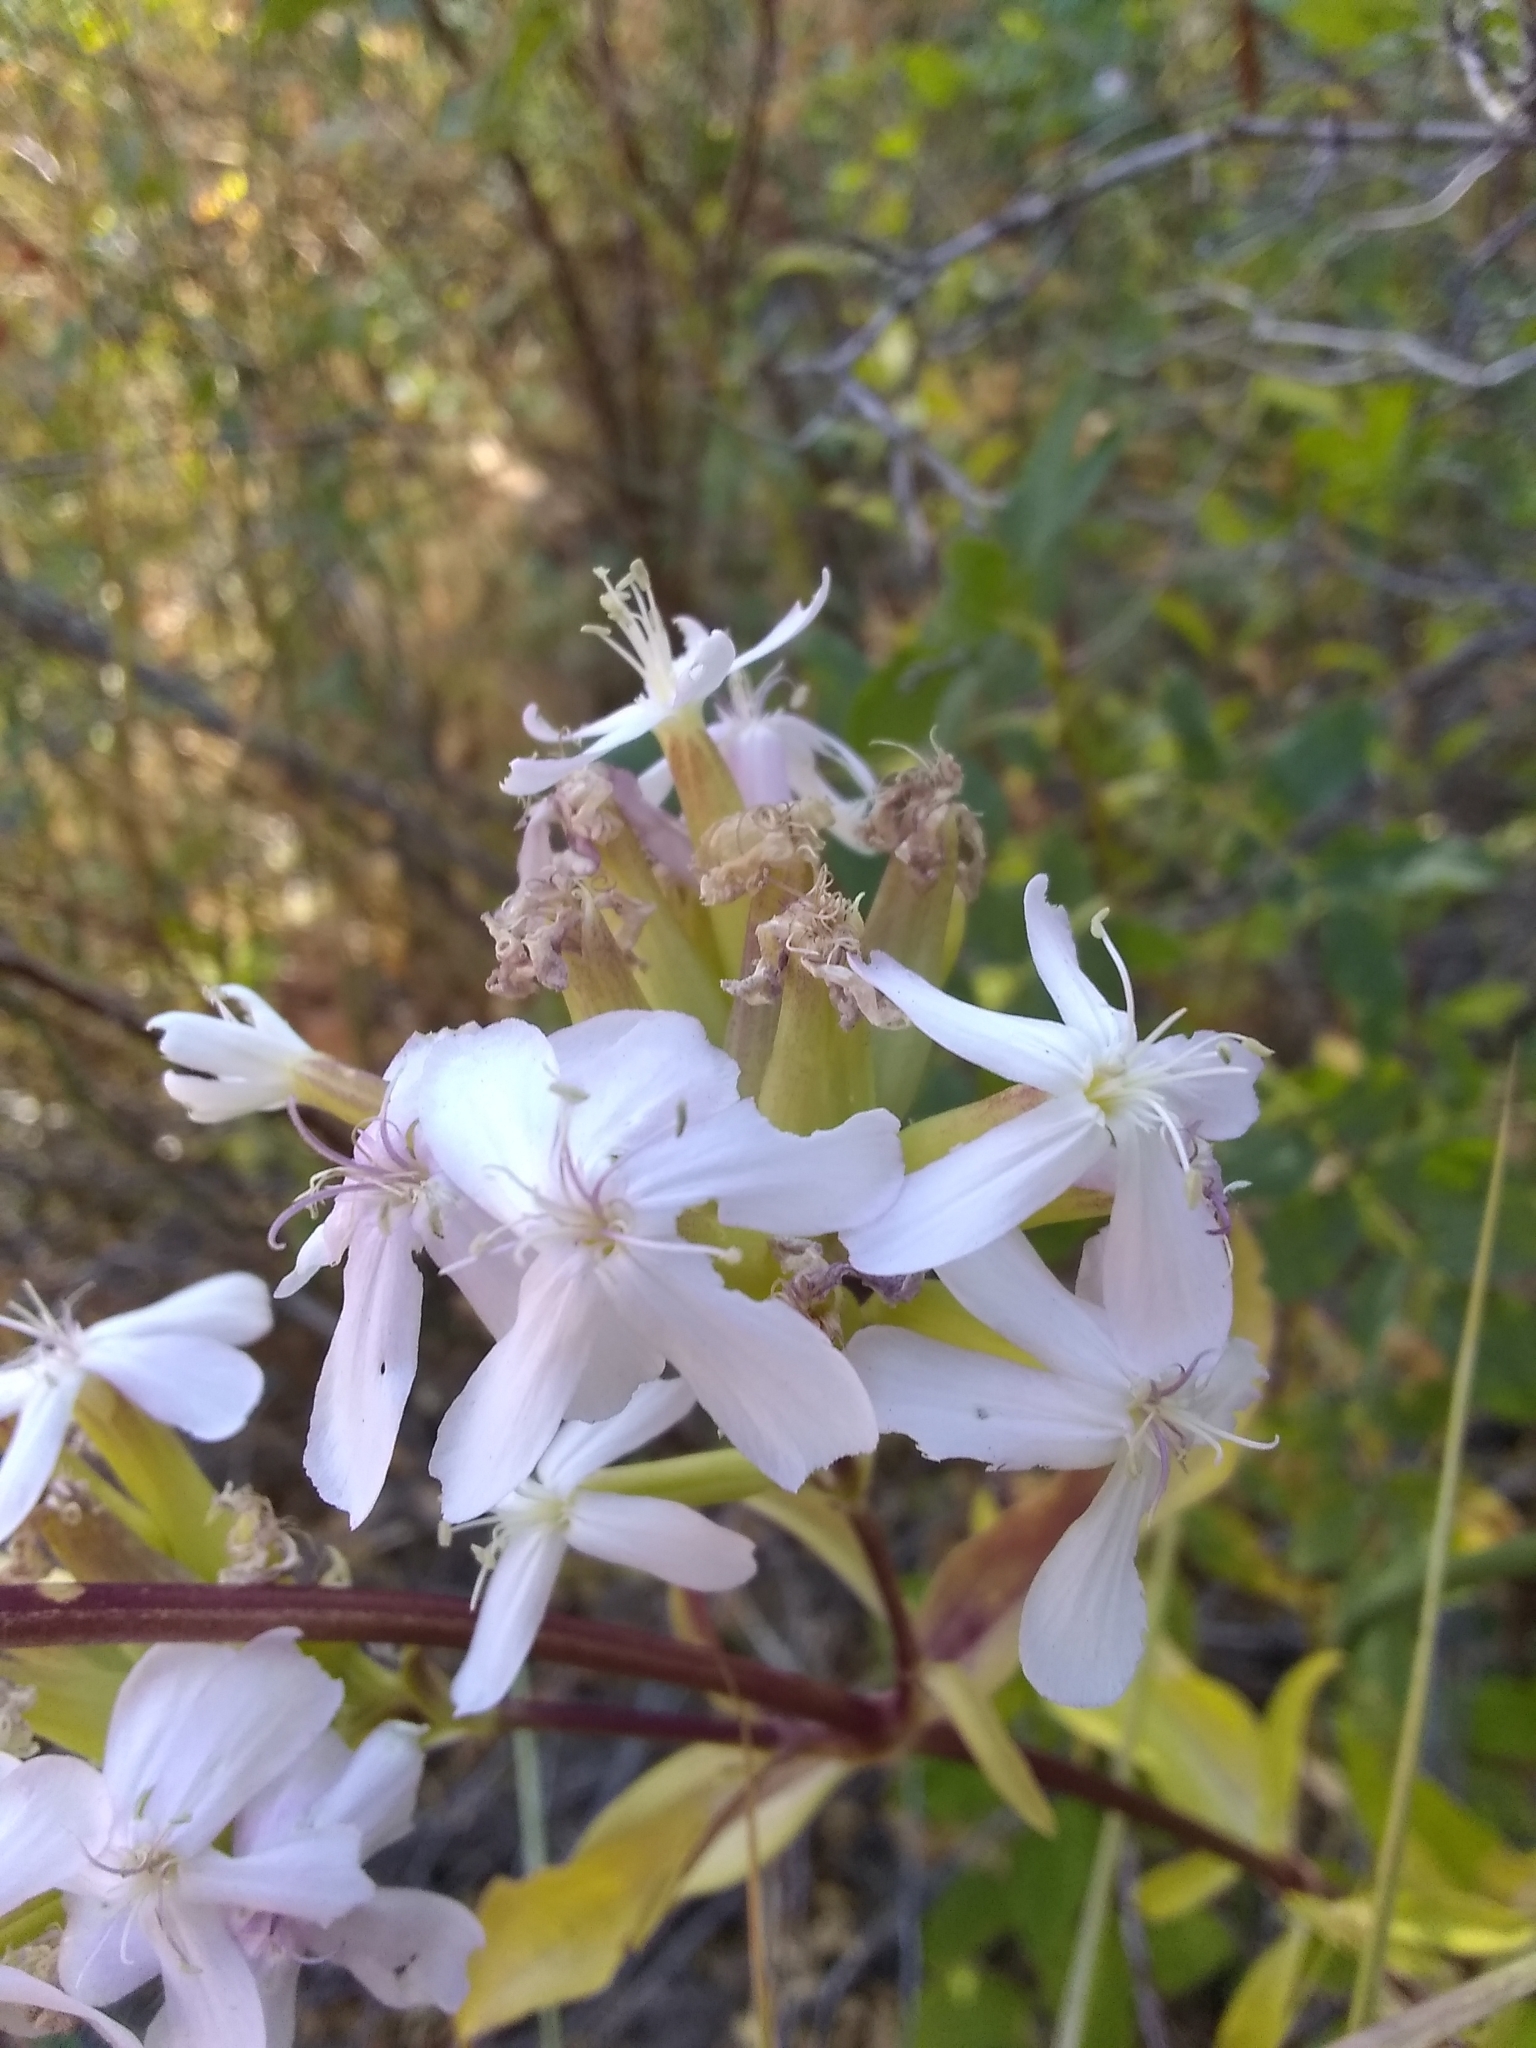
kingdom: Plantae
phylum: Tracheophyta
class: Magnoliopsida
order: Caryophyllales
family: Caryophyllaceae
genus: Saponaria
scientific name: Saponaria officinalis
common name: Soapwort
